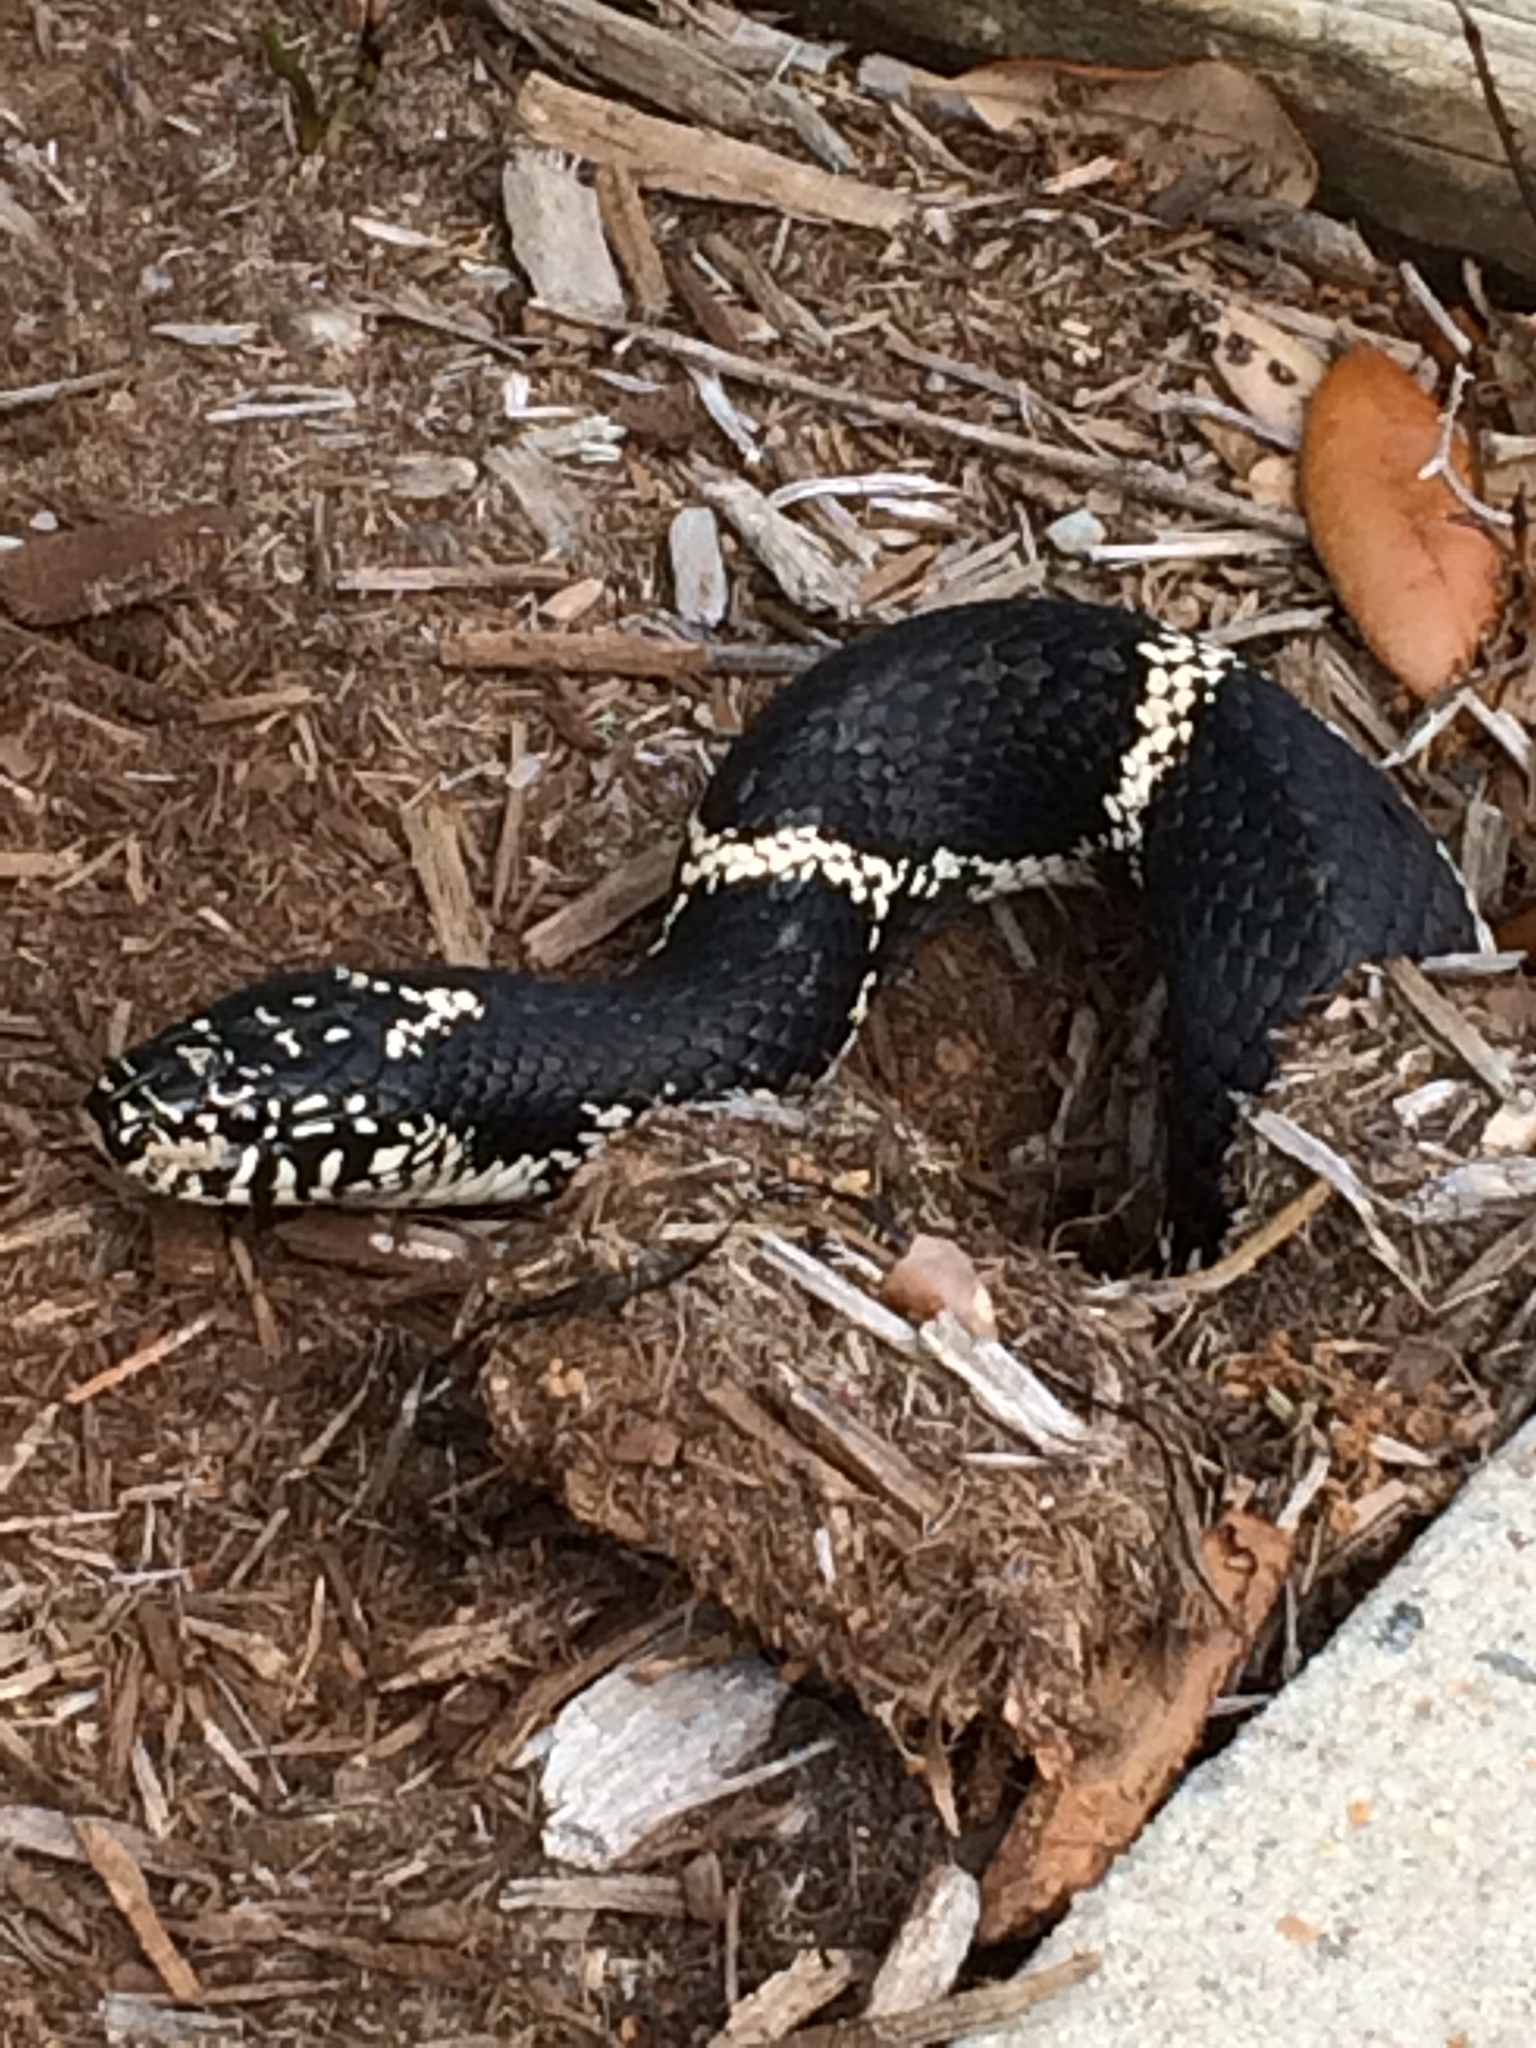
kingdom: Animalia
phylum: Chordata
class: Squamata
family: Colubridae
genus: Lampropeltis
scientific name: Lampropeltis getula
